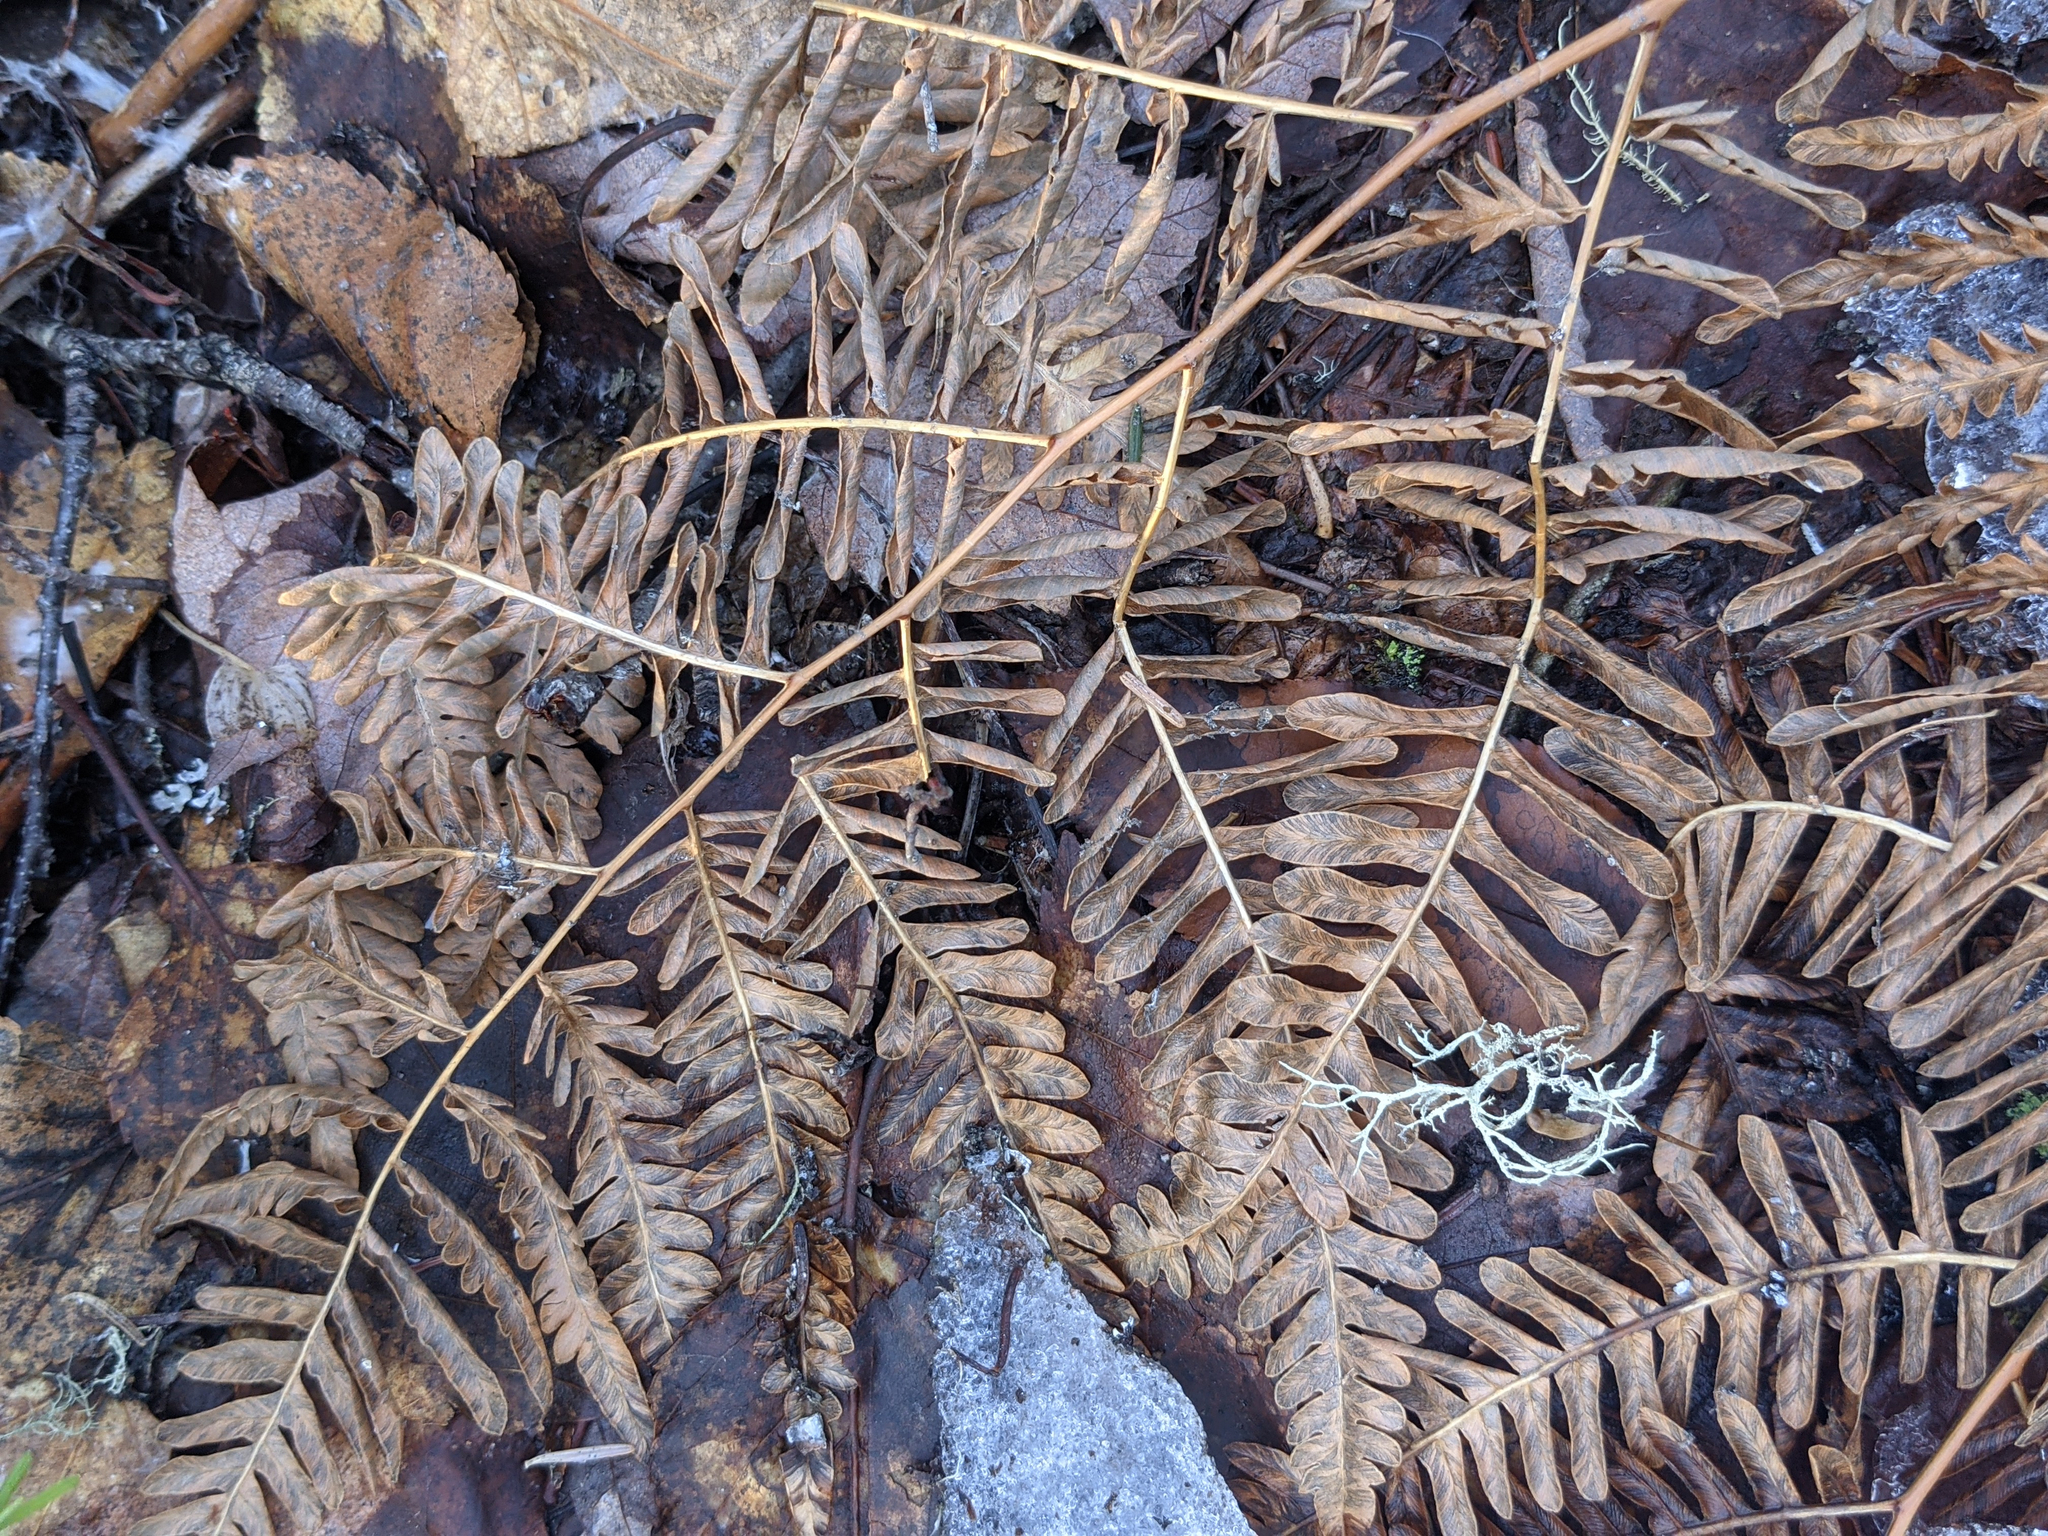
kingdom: Plantae
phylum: Tracheophyta
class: Polypodiopsida
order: Polypodiales
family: Dennstaedtiaceae
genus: Pteridium
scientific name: Pteridium aquilinum
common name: Bracken
